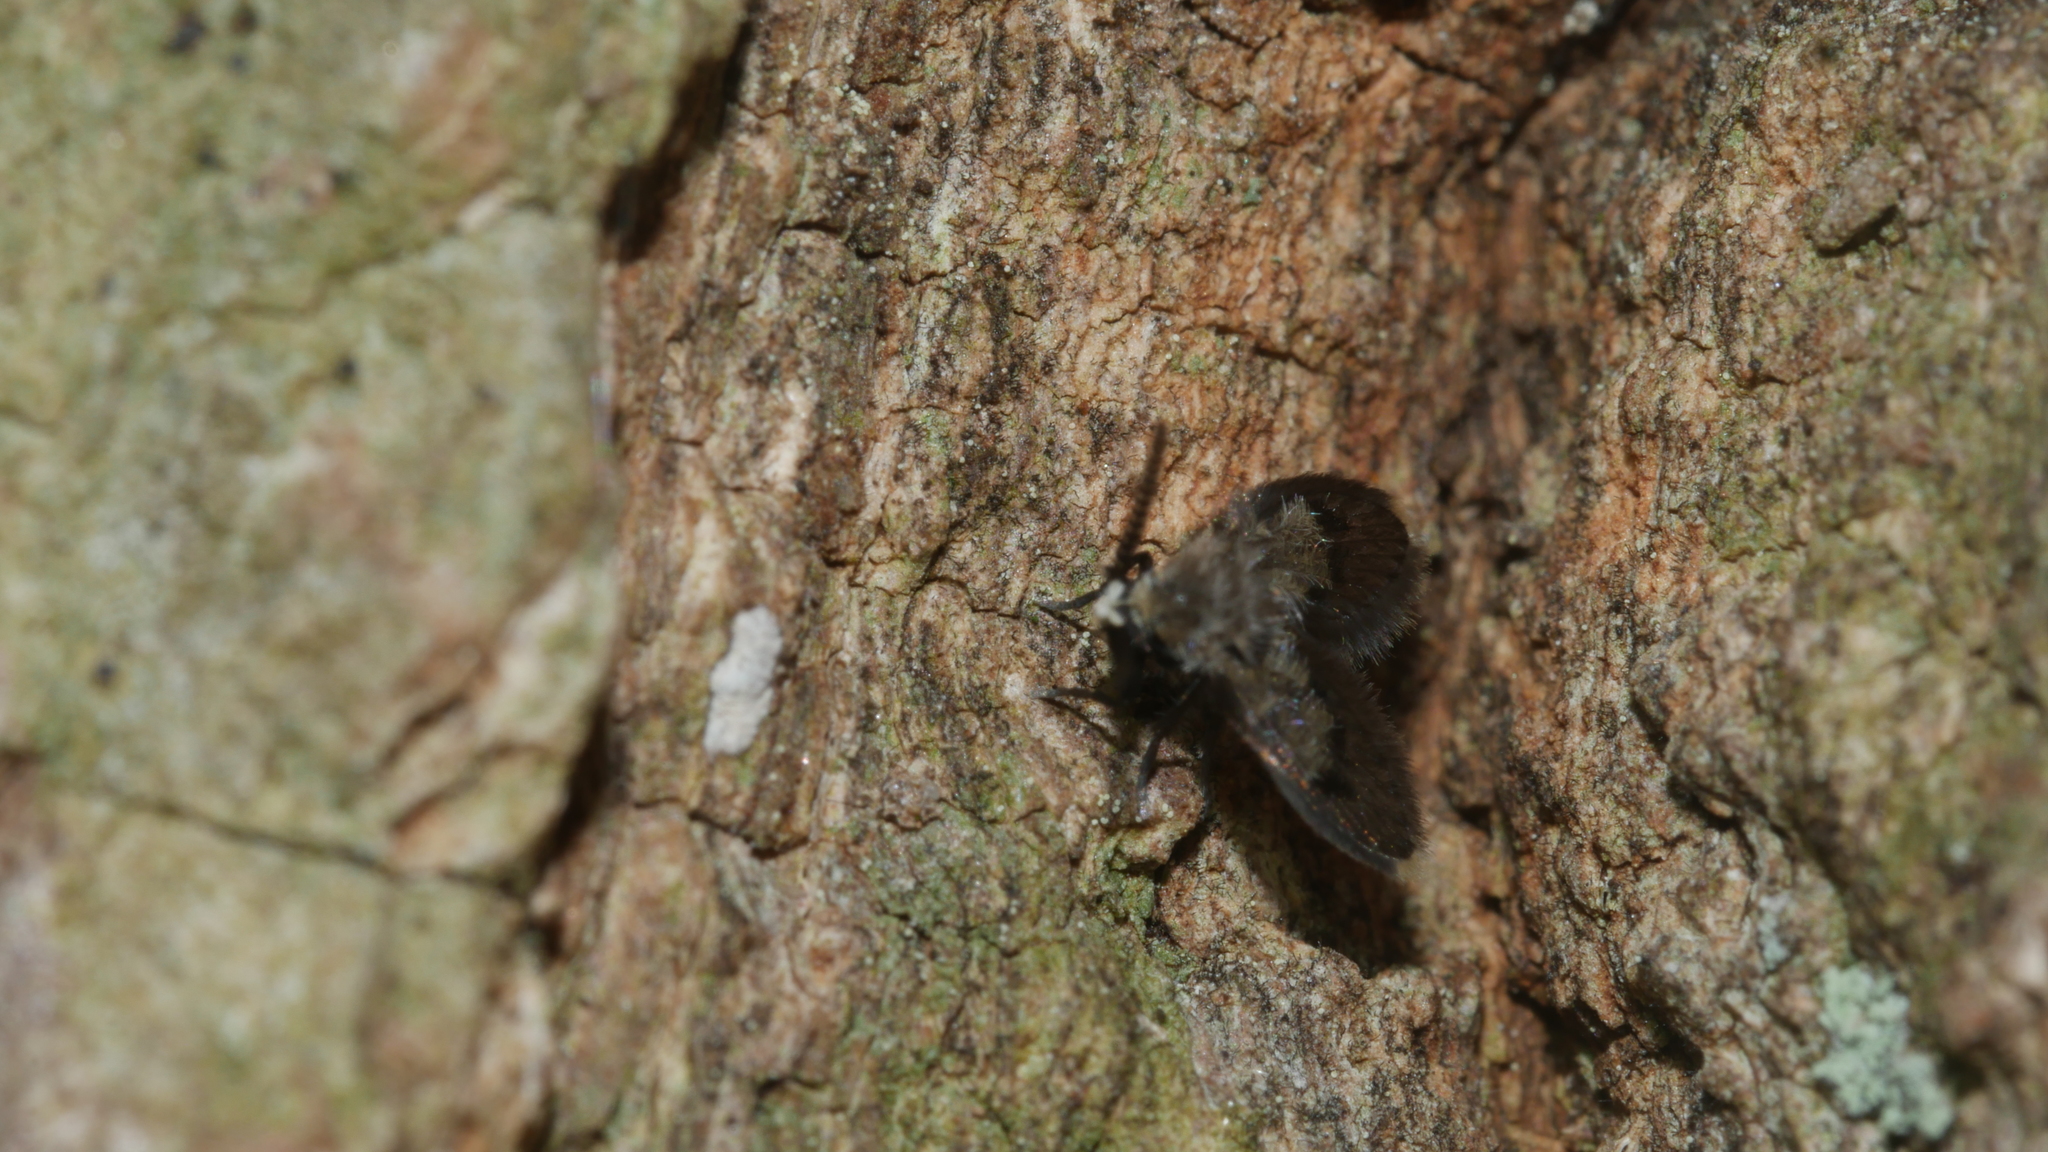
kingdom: Animalia
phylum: Arthropoda
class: Insecta
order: Diptera
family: Psychodidae
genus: Lepiseodina
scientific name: Lepiseodina
